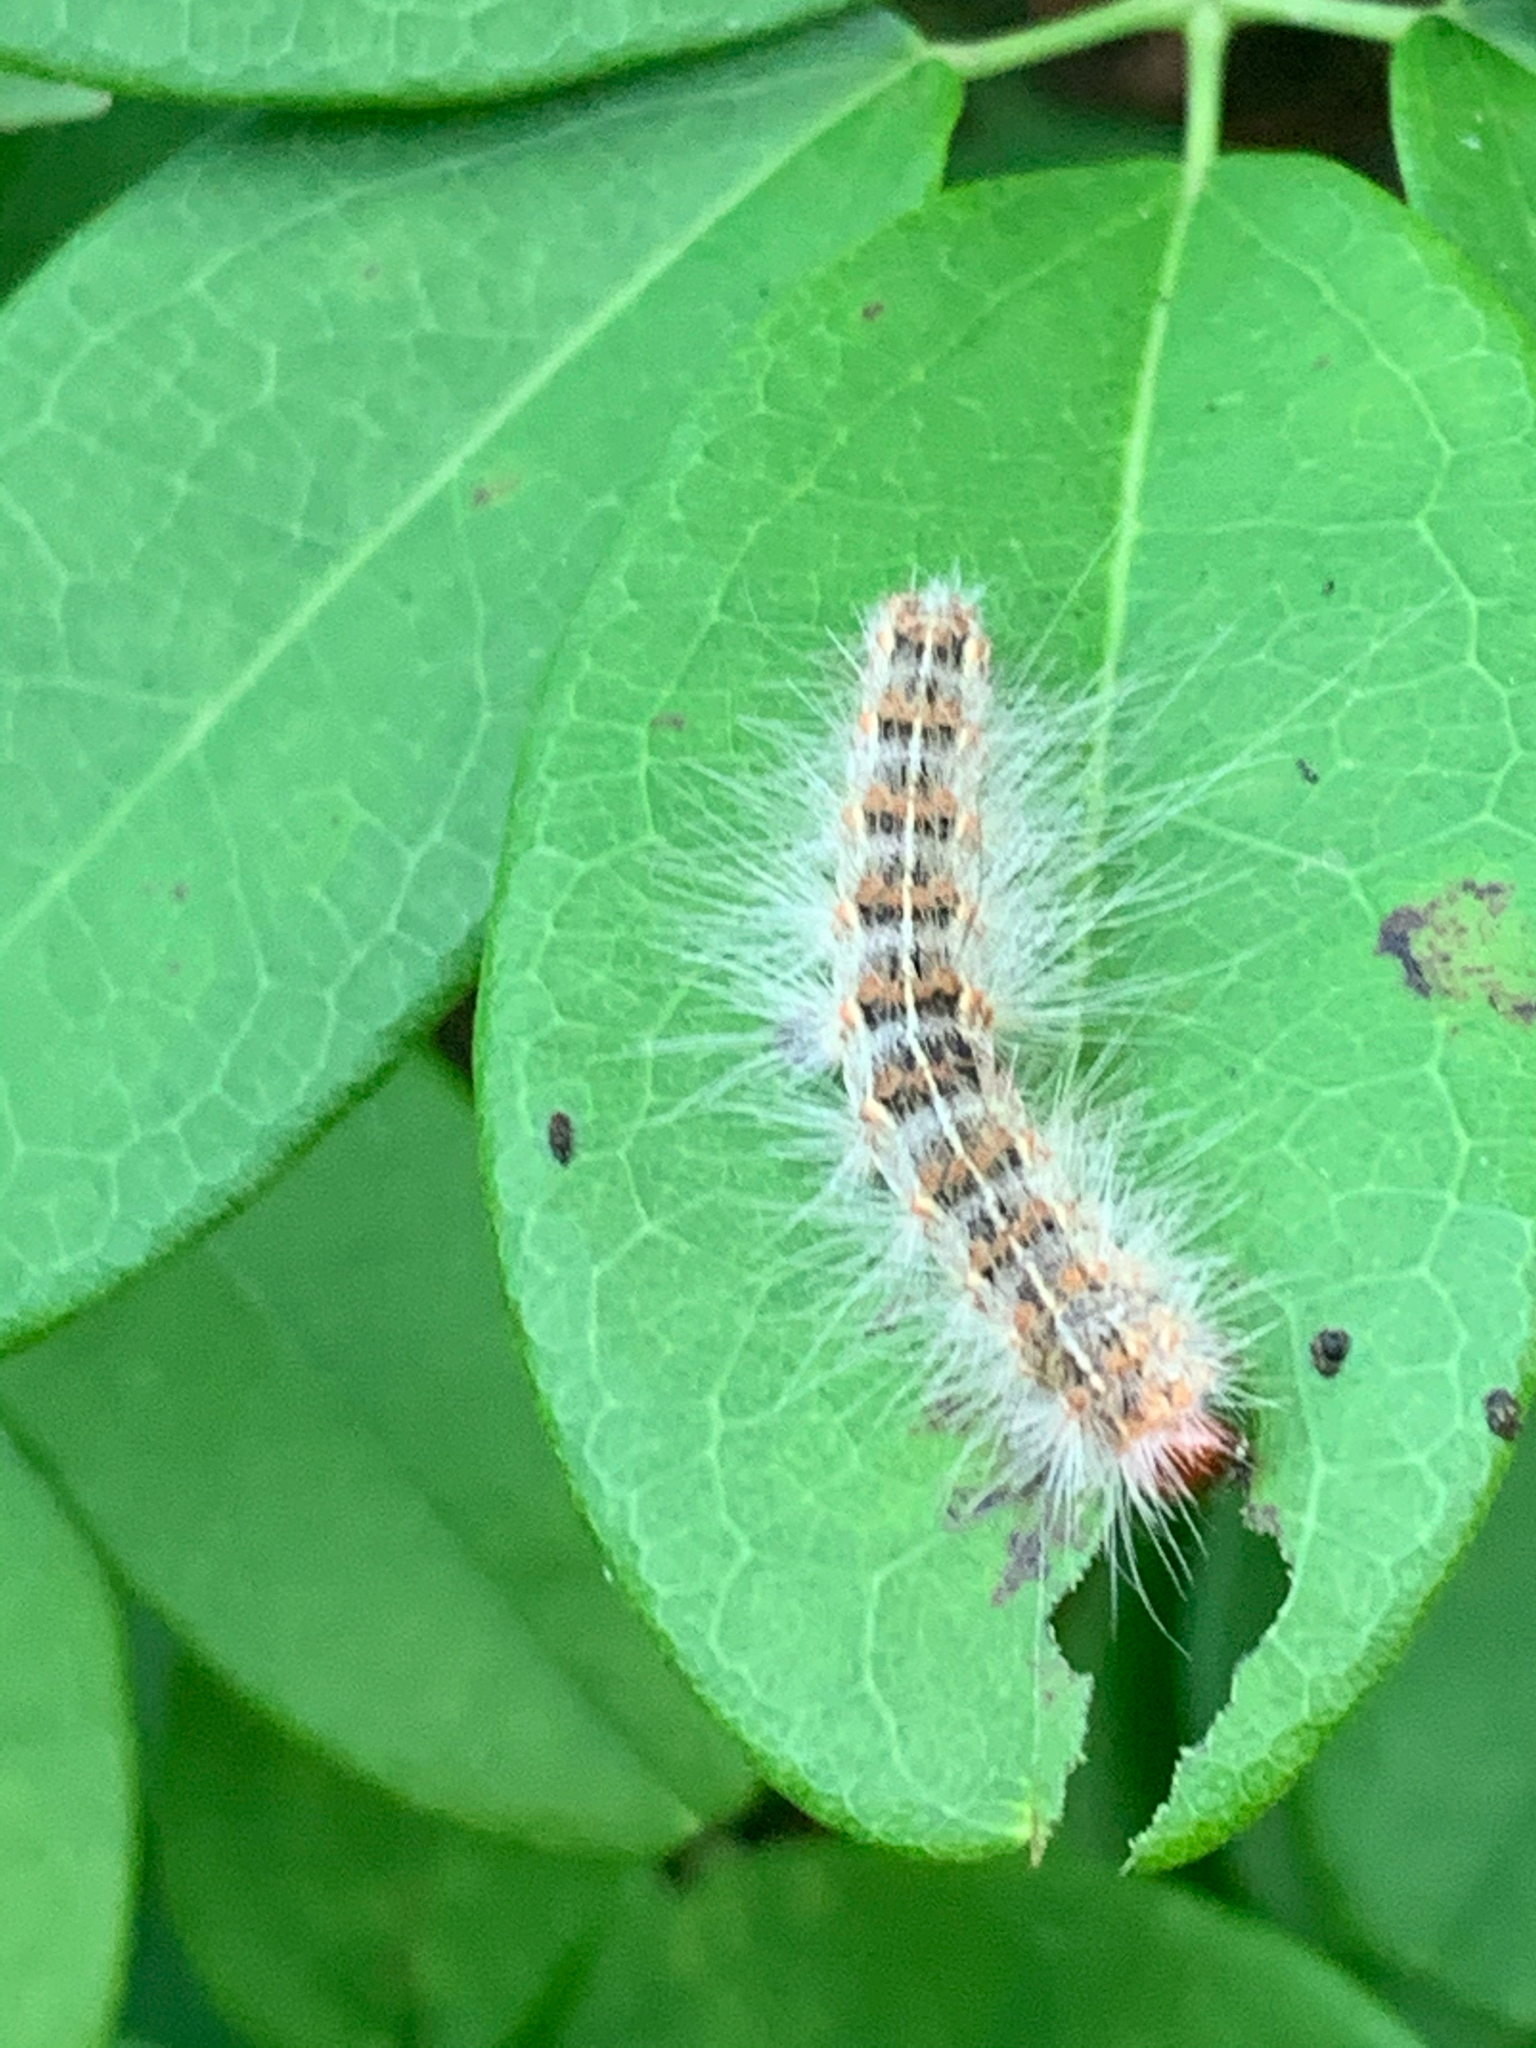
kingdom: Animalia
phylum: Arthropoda
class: Insecta
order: Lepidoptera
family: Erebidae
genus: Hyphantria
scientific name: Hyphantria cunea
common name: American white moth
